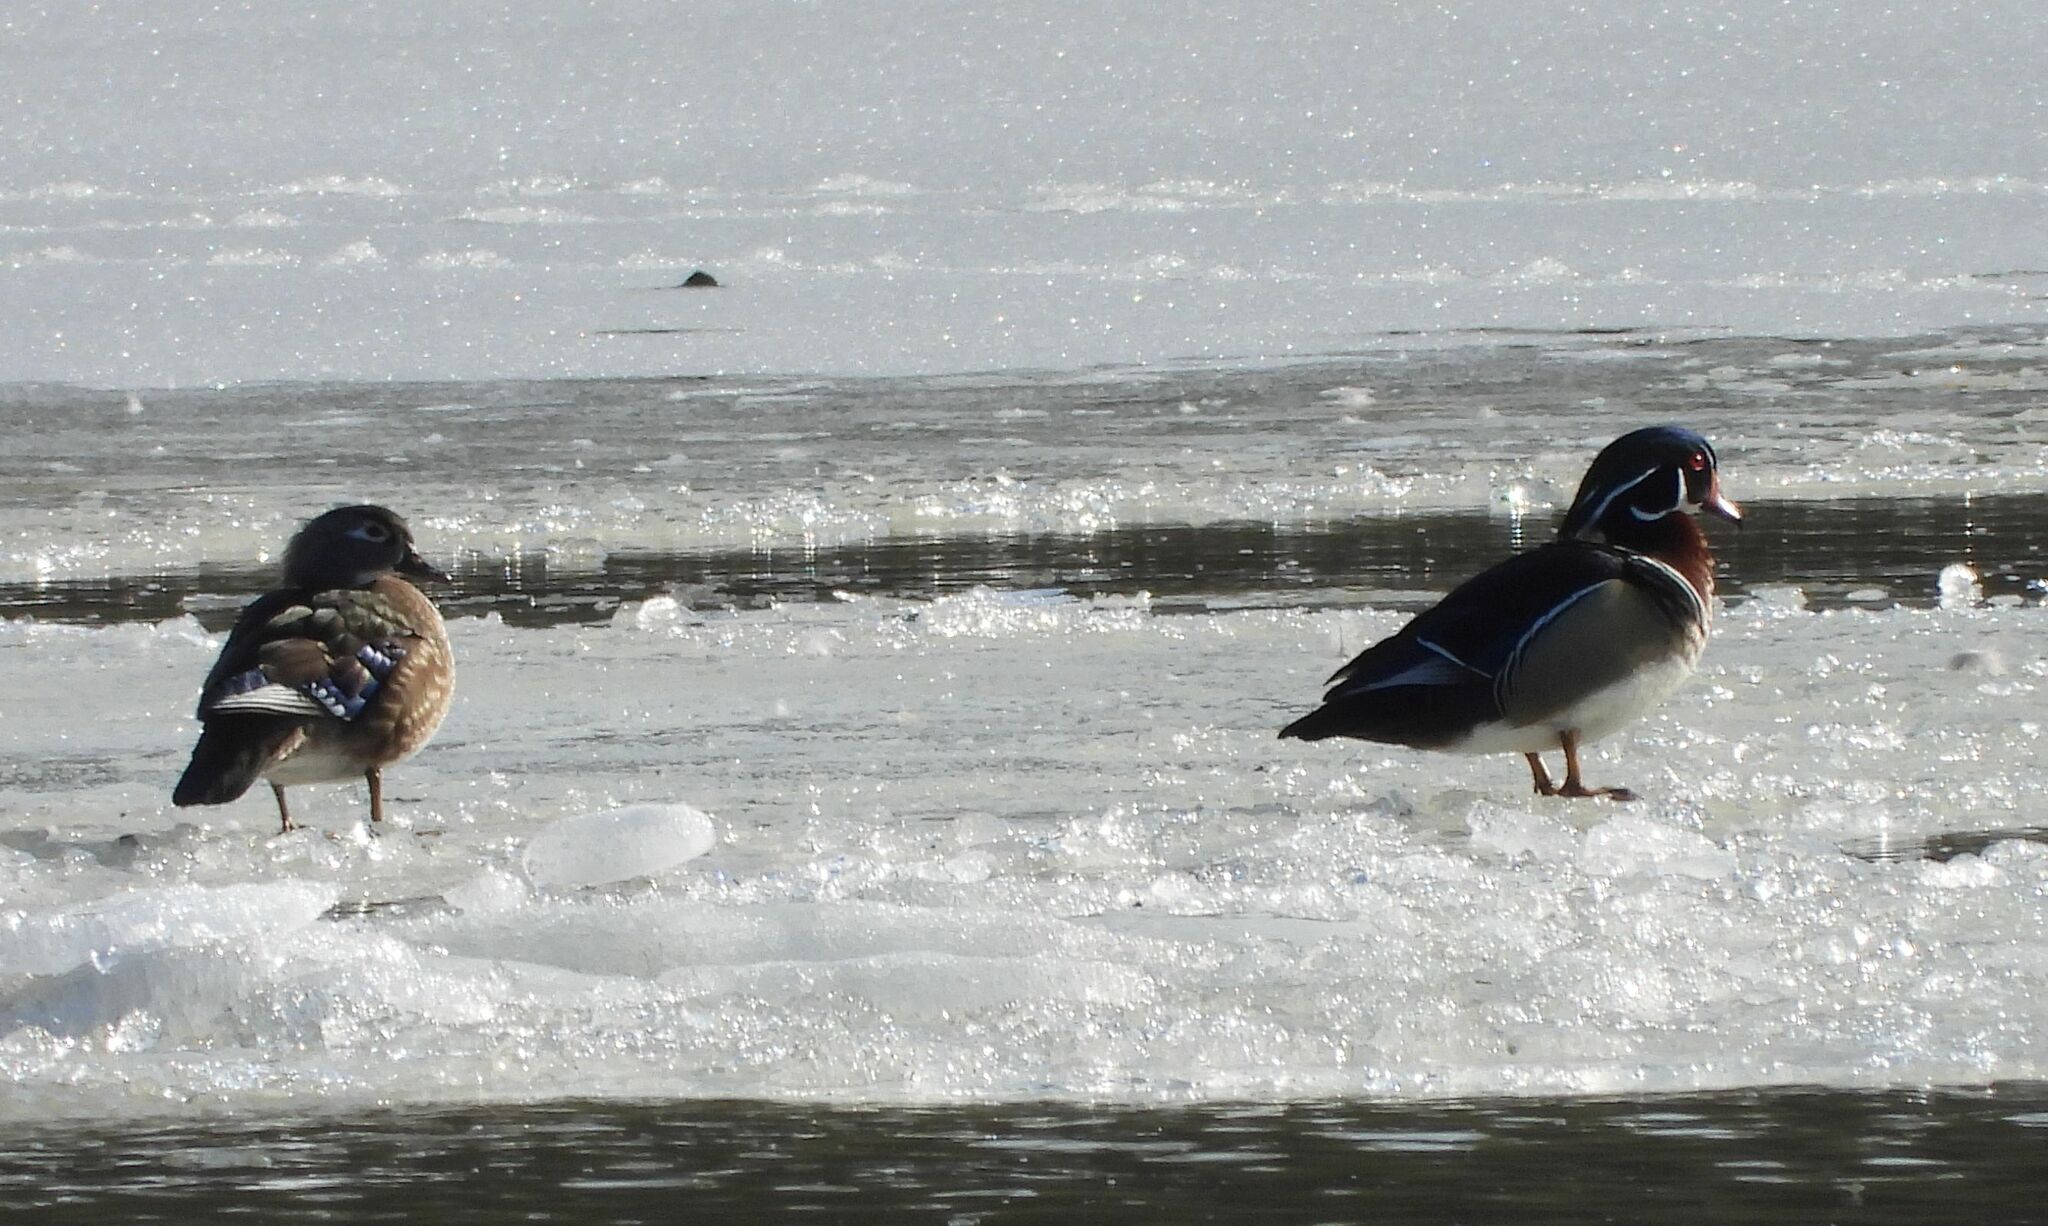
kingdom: Animalia
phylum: Chordata
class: Aves
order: Anseriformes
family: Anatidae
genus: Aix
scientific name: Aix sponsa
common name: Wood duck
